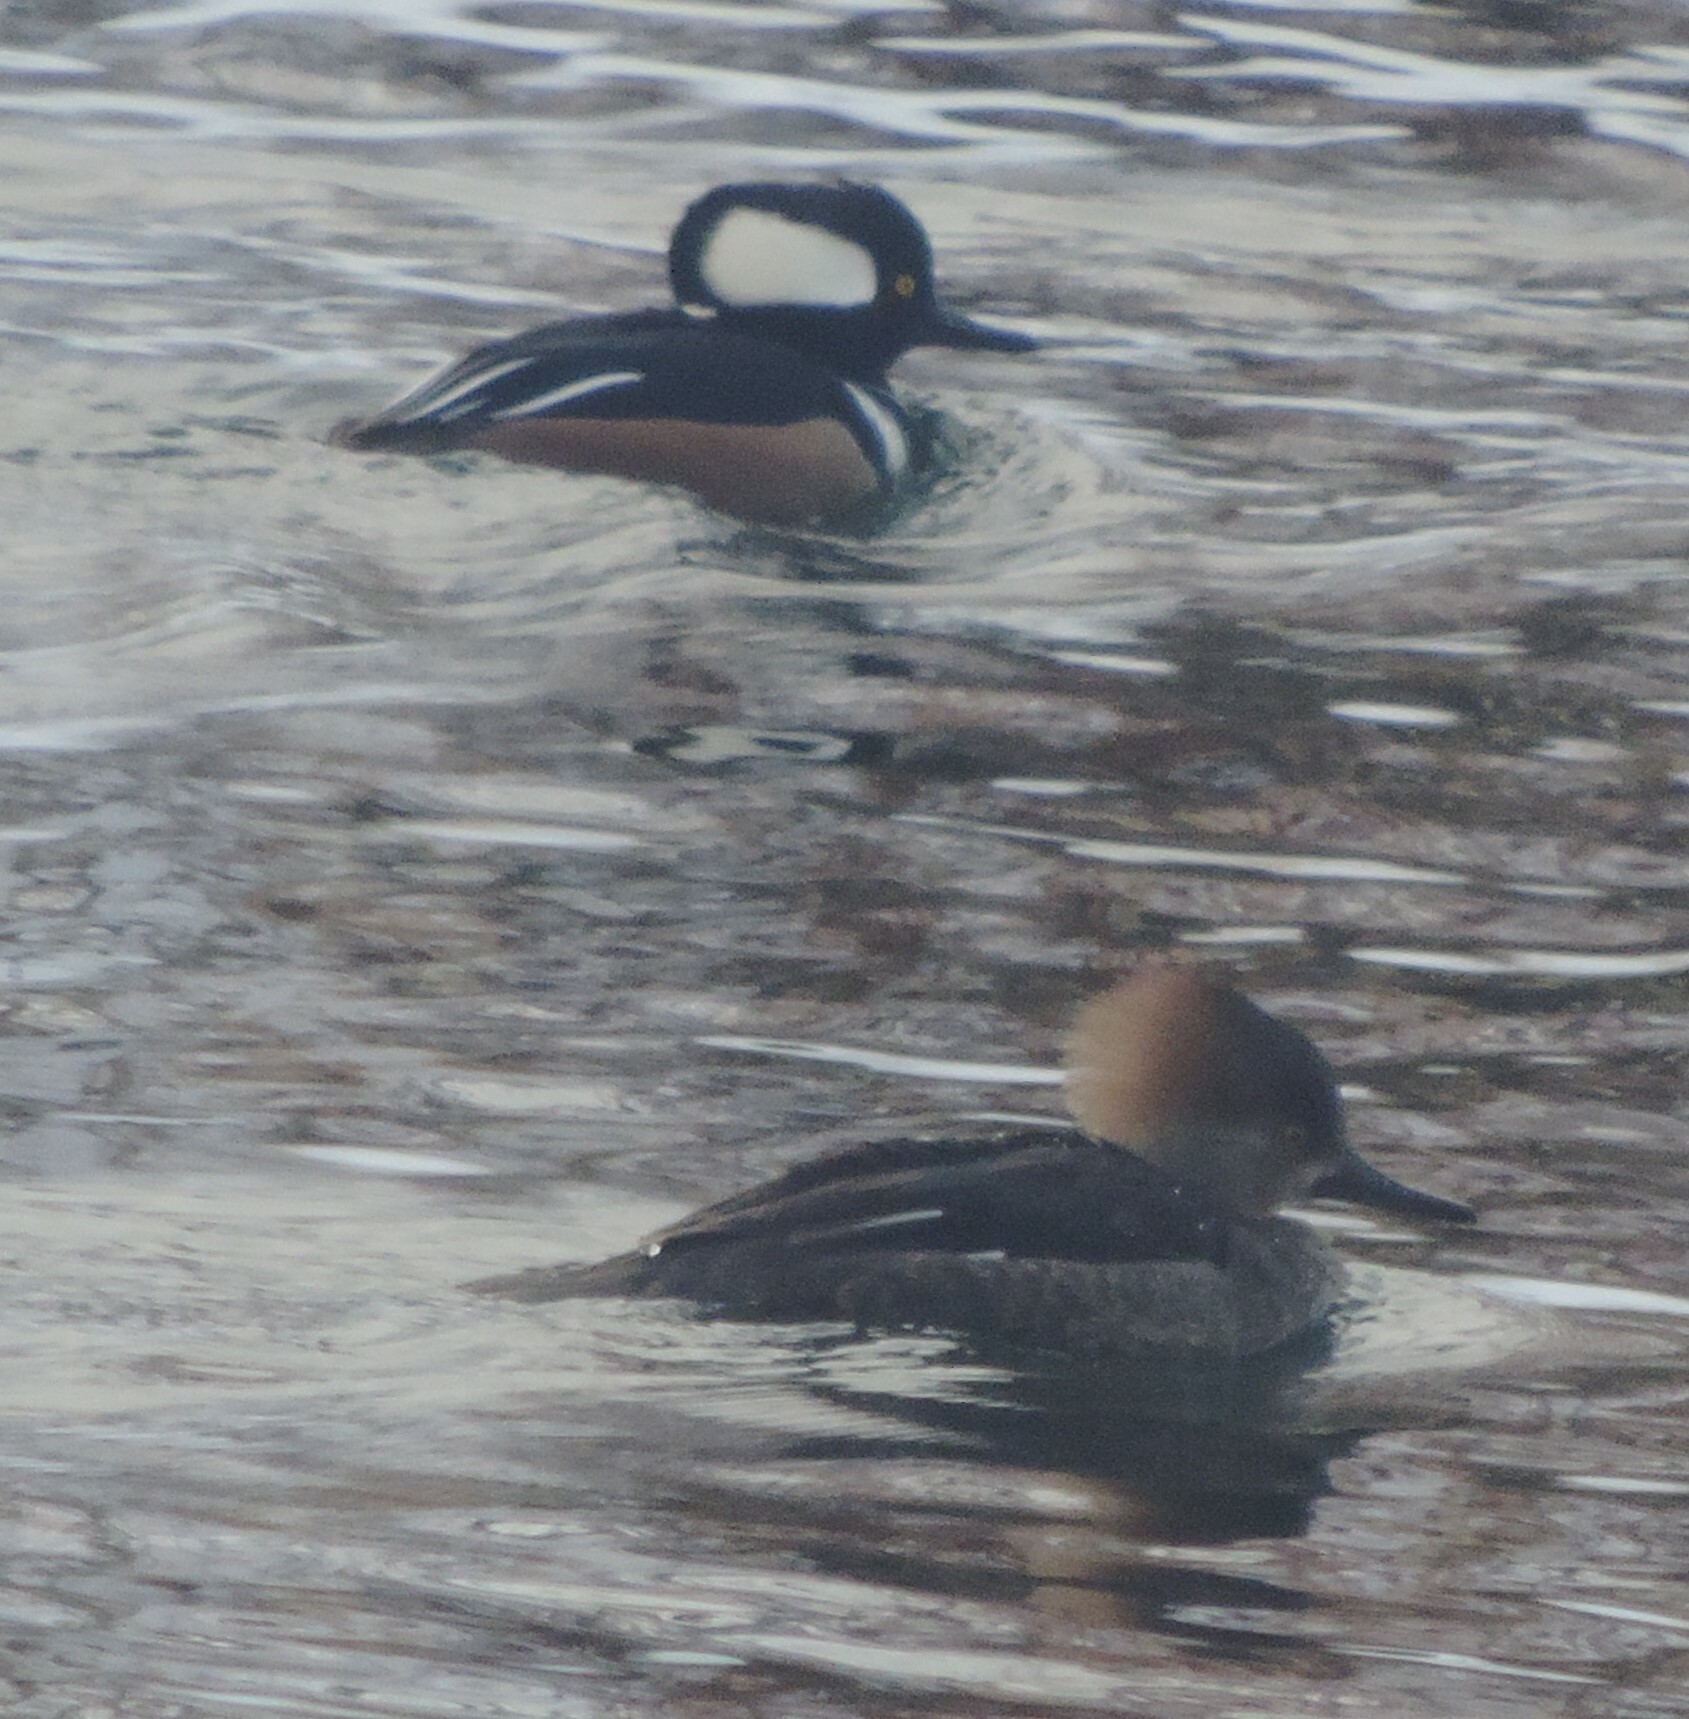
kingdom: Animalia
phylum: Chordata
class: Aves
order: Anseriformes
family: Anatidae
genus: Lophodytes
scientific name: Lophodytes cucullatus
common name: Hooded merganser
